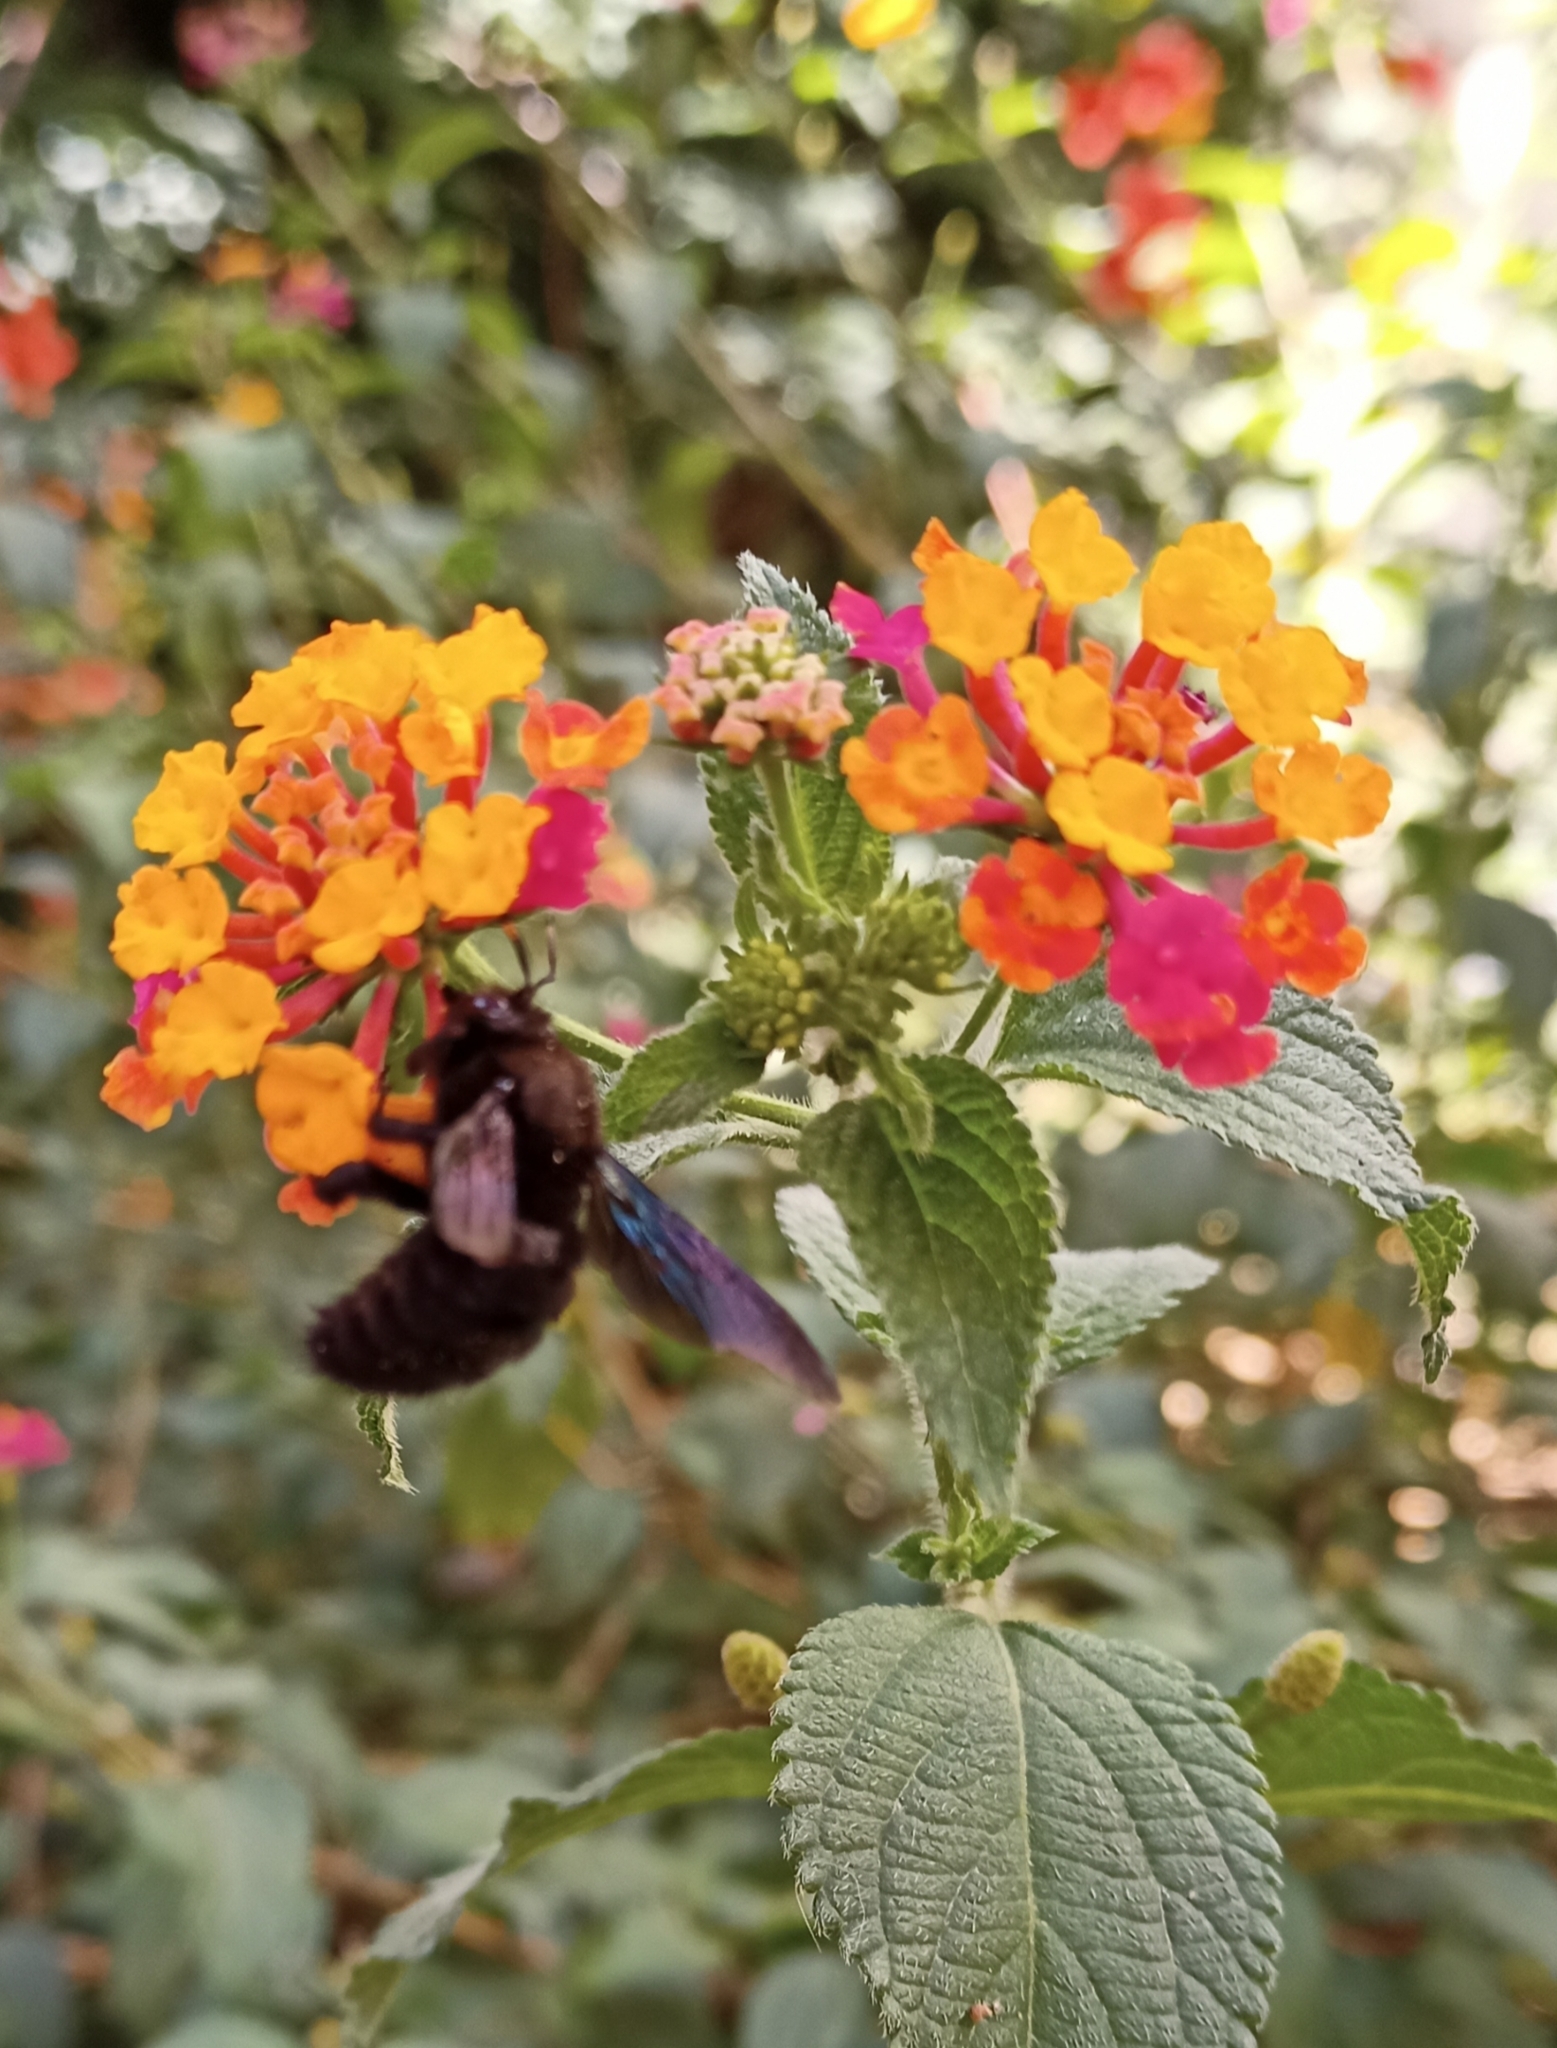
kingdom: Animalia
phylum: Arthropoda
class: Insecta
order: Hymenoptera
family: Apidae
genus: Xylocopa
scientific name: Xylocopa violacea
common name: Violet carpenter bee
